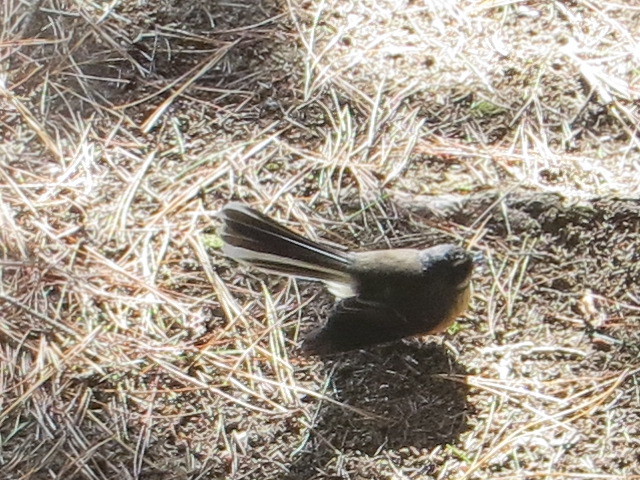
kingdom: Animalia
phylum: Chordata
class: Aves
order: Passeriformes
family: Rhipiduridae
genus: Rhipidura
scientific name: Rhipidura fuliginosa
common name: New zealand fantail
